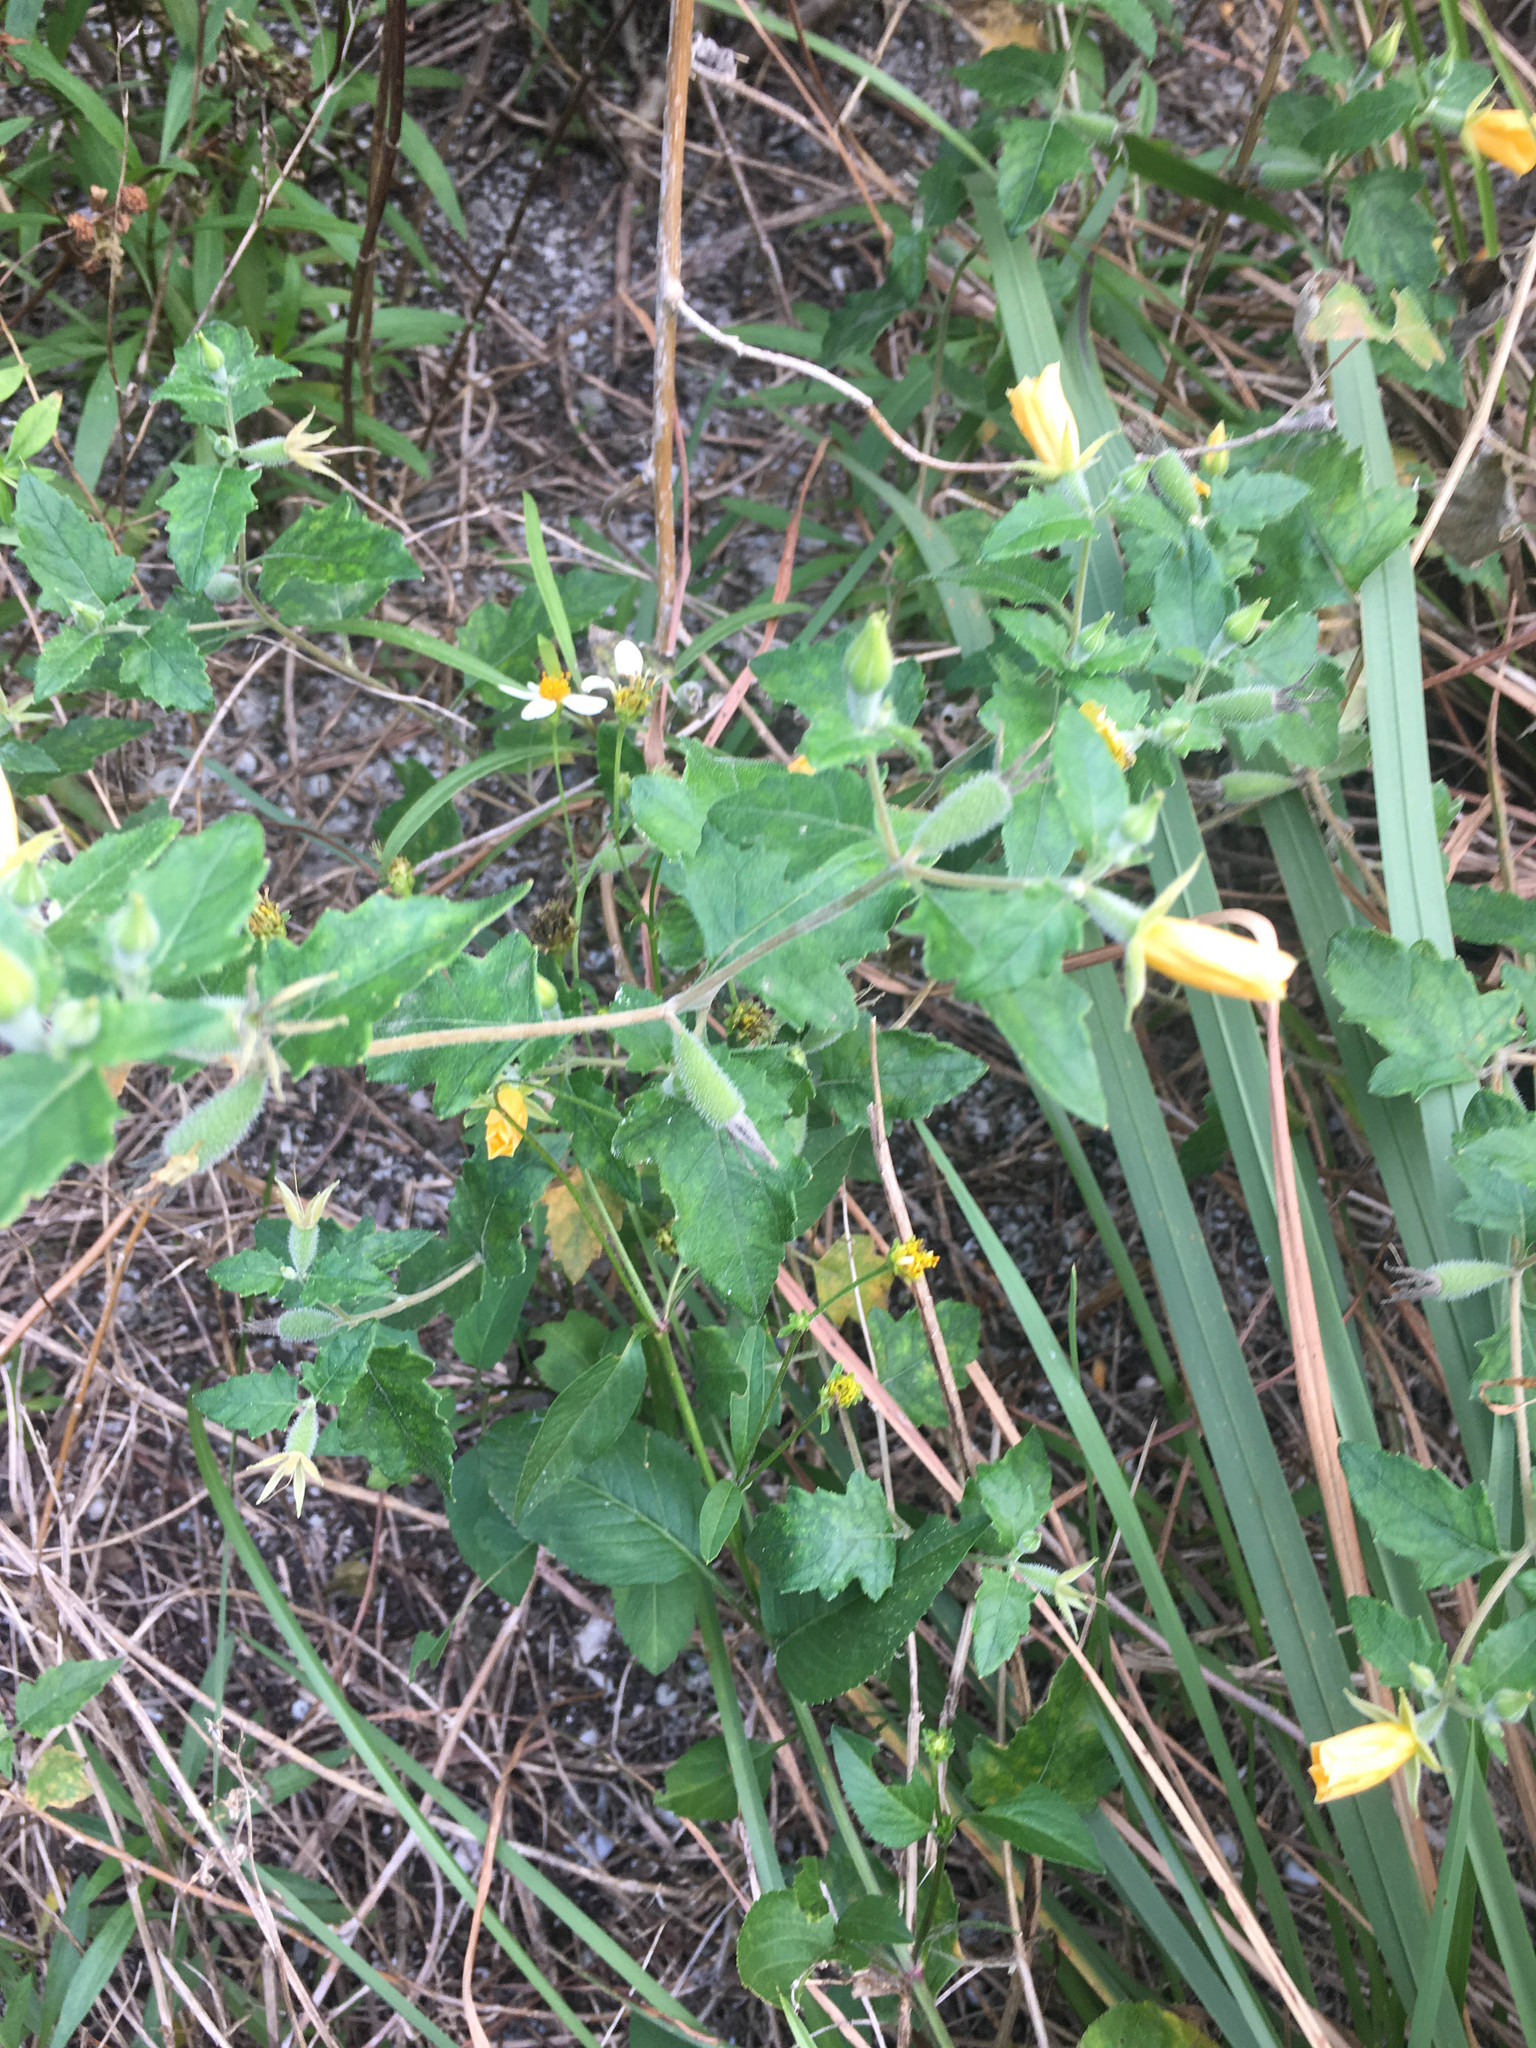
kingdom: Plantae
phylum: Tracheophyta
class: Magnoliopsida
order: Cornales
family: Loasaceae
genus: Mentzelia
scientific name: Mentzelia floridana
